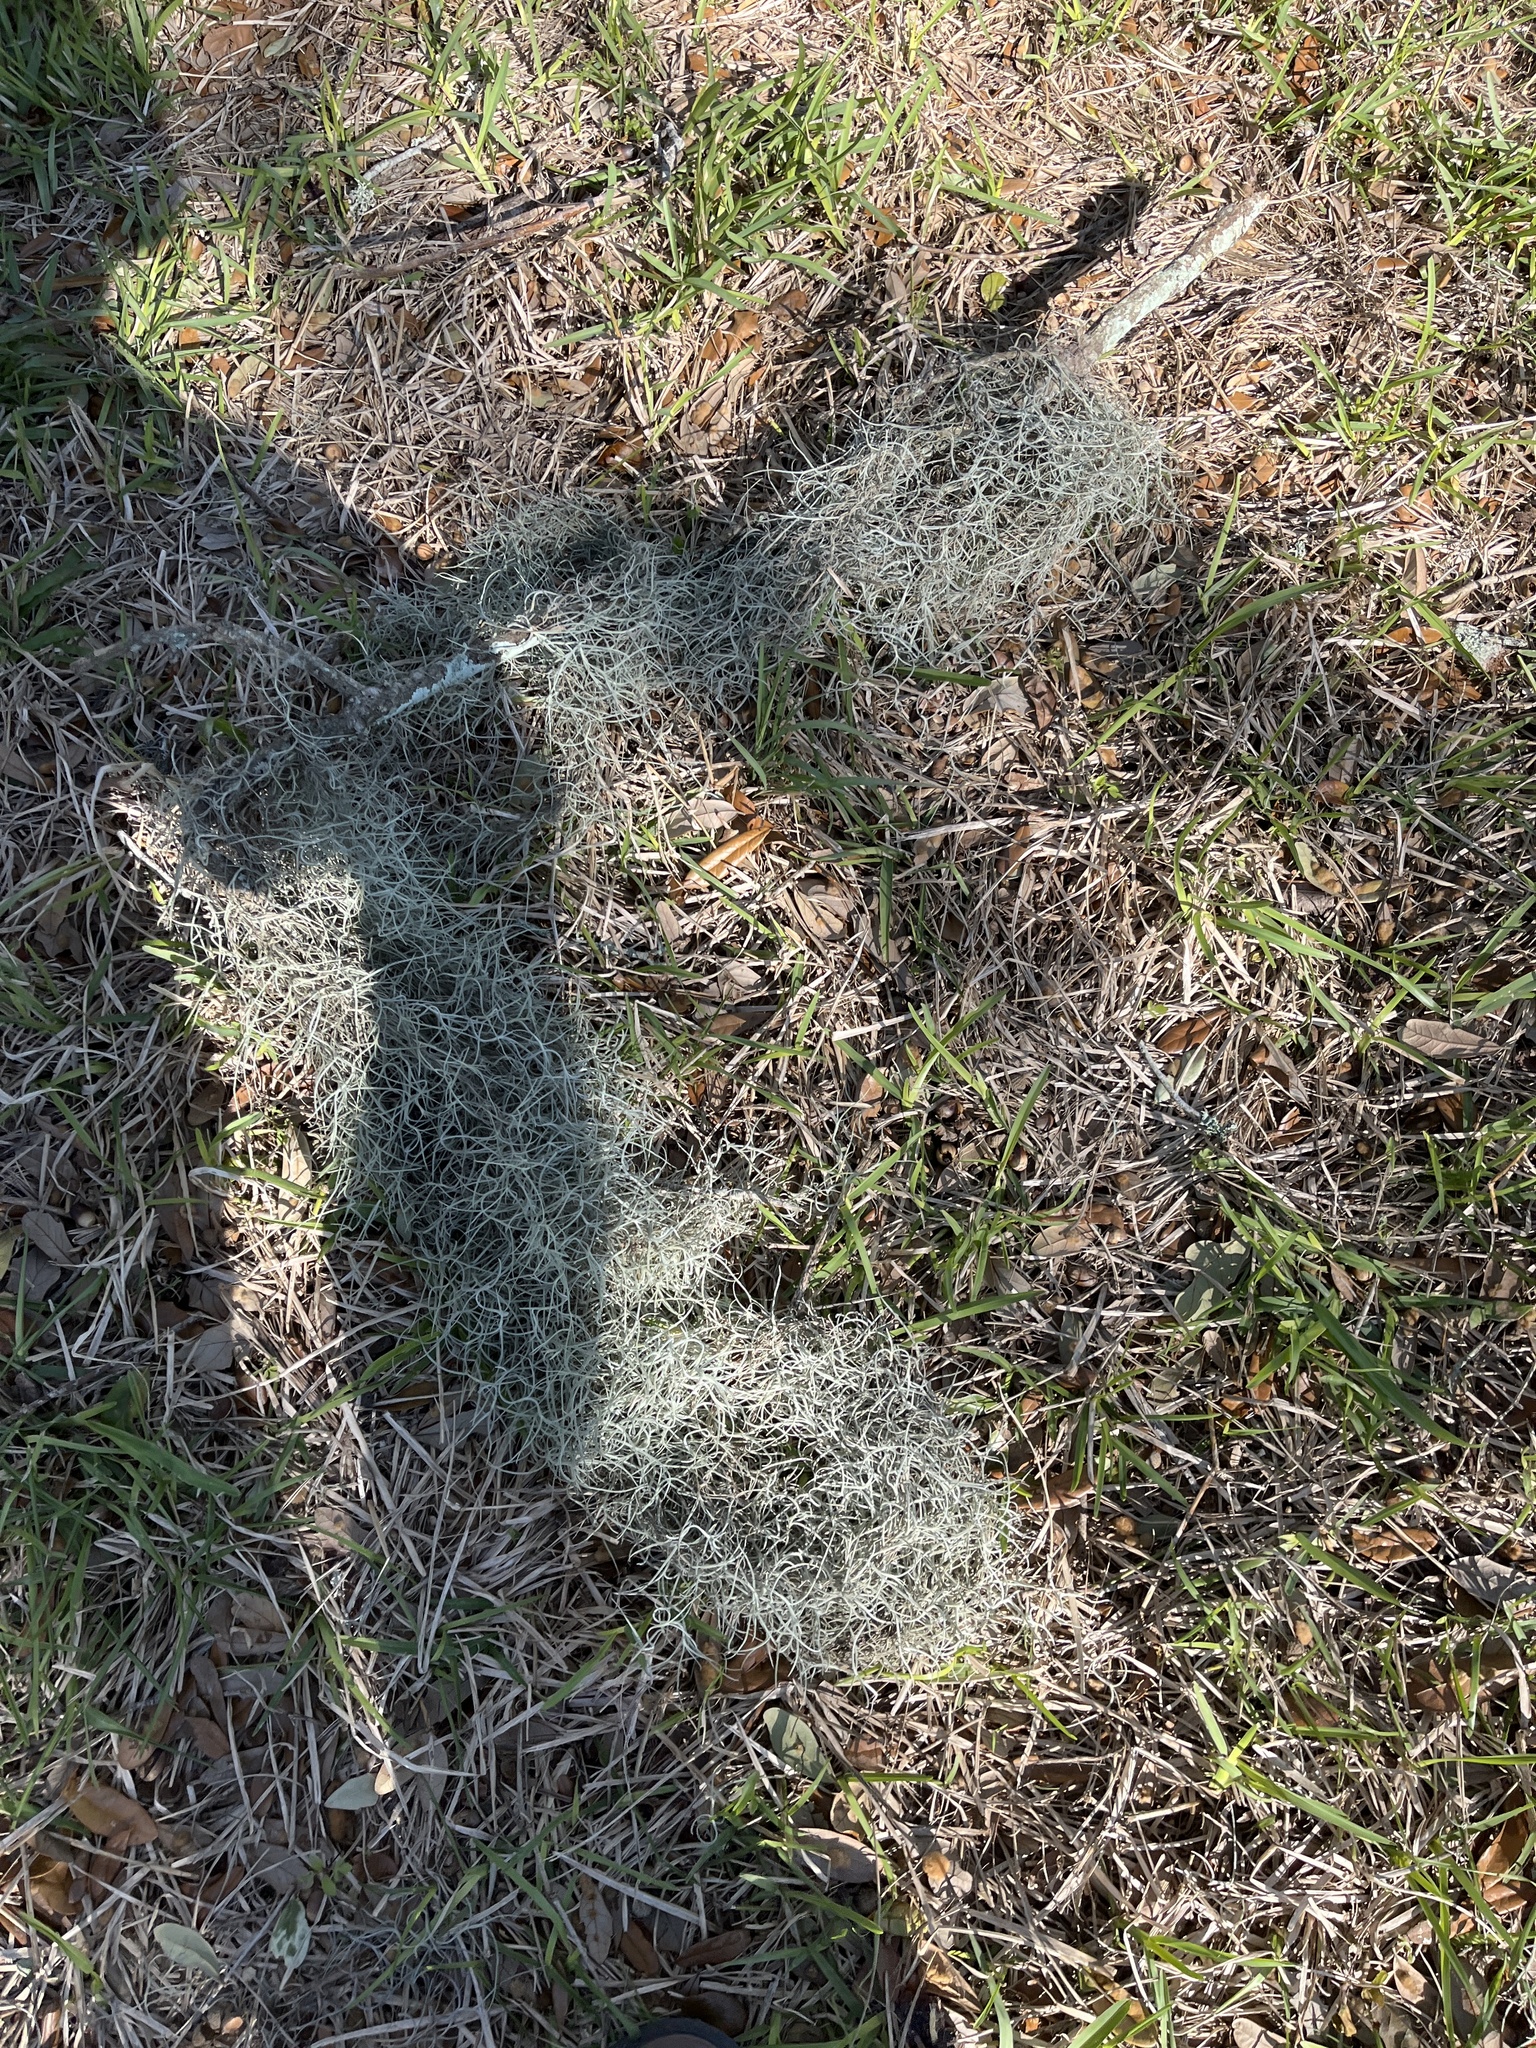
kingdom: Plantae
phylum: Tracheophyta
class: Liliopsida
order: Poales
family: Bromeliaceae
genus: Tillandsia
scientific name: Tillandsia usneoides
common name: Spanish moss
